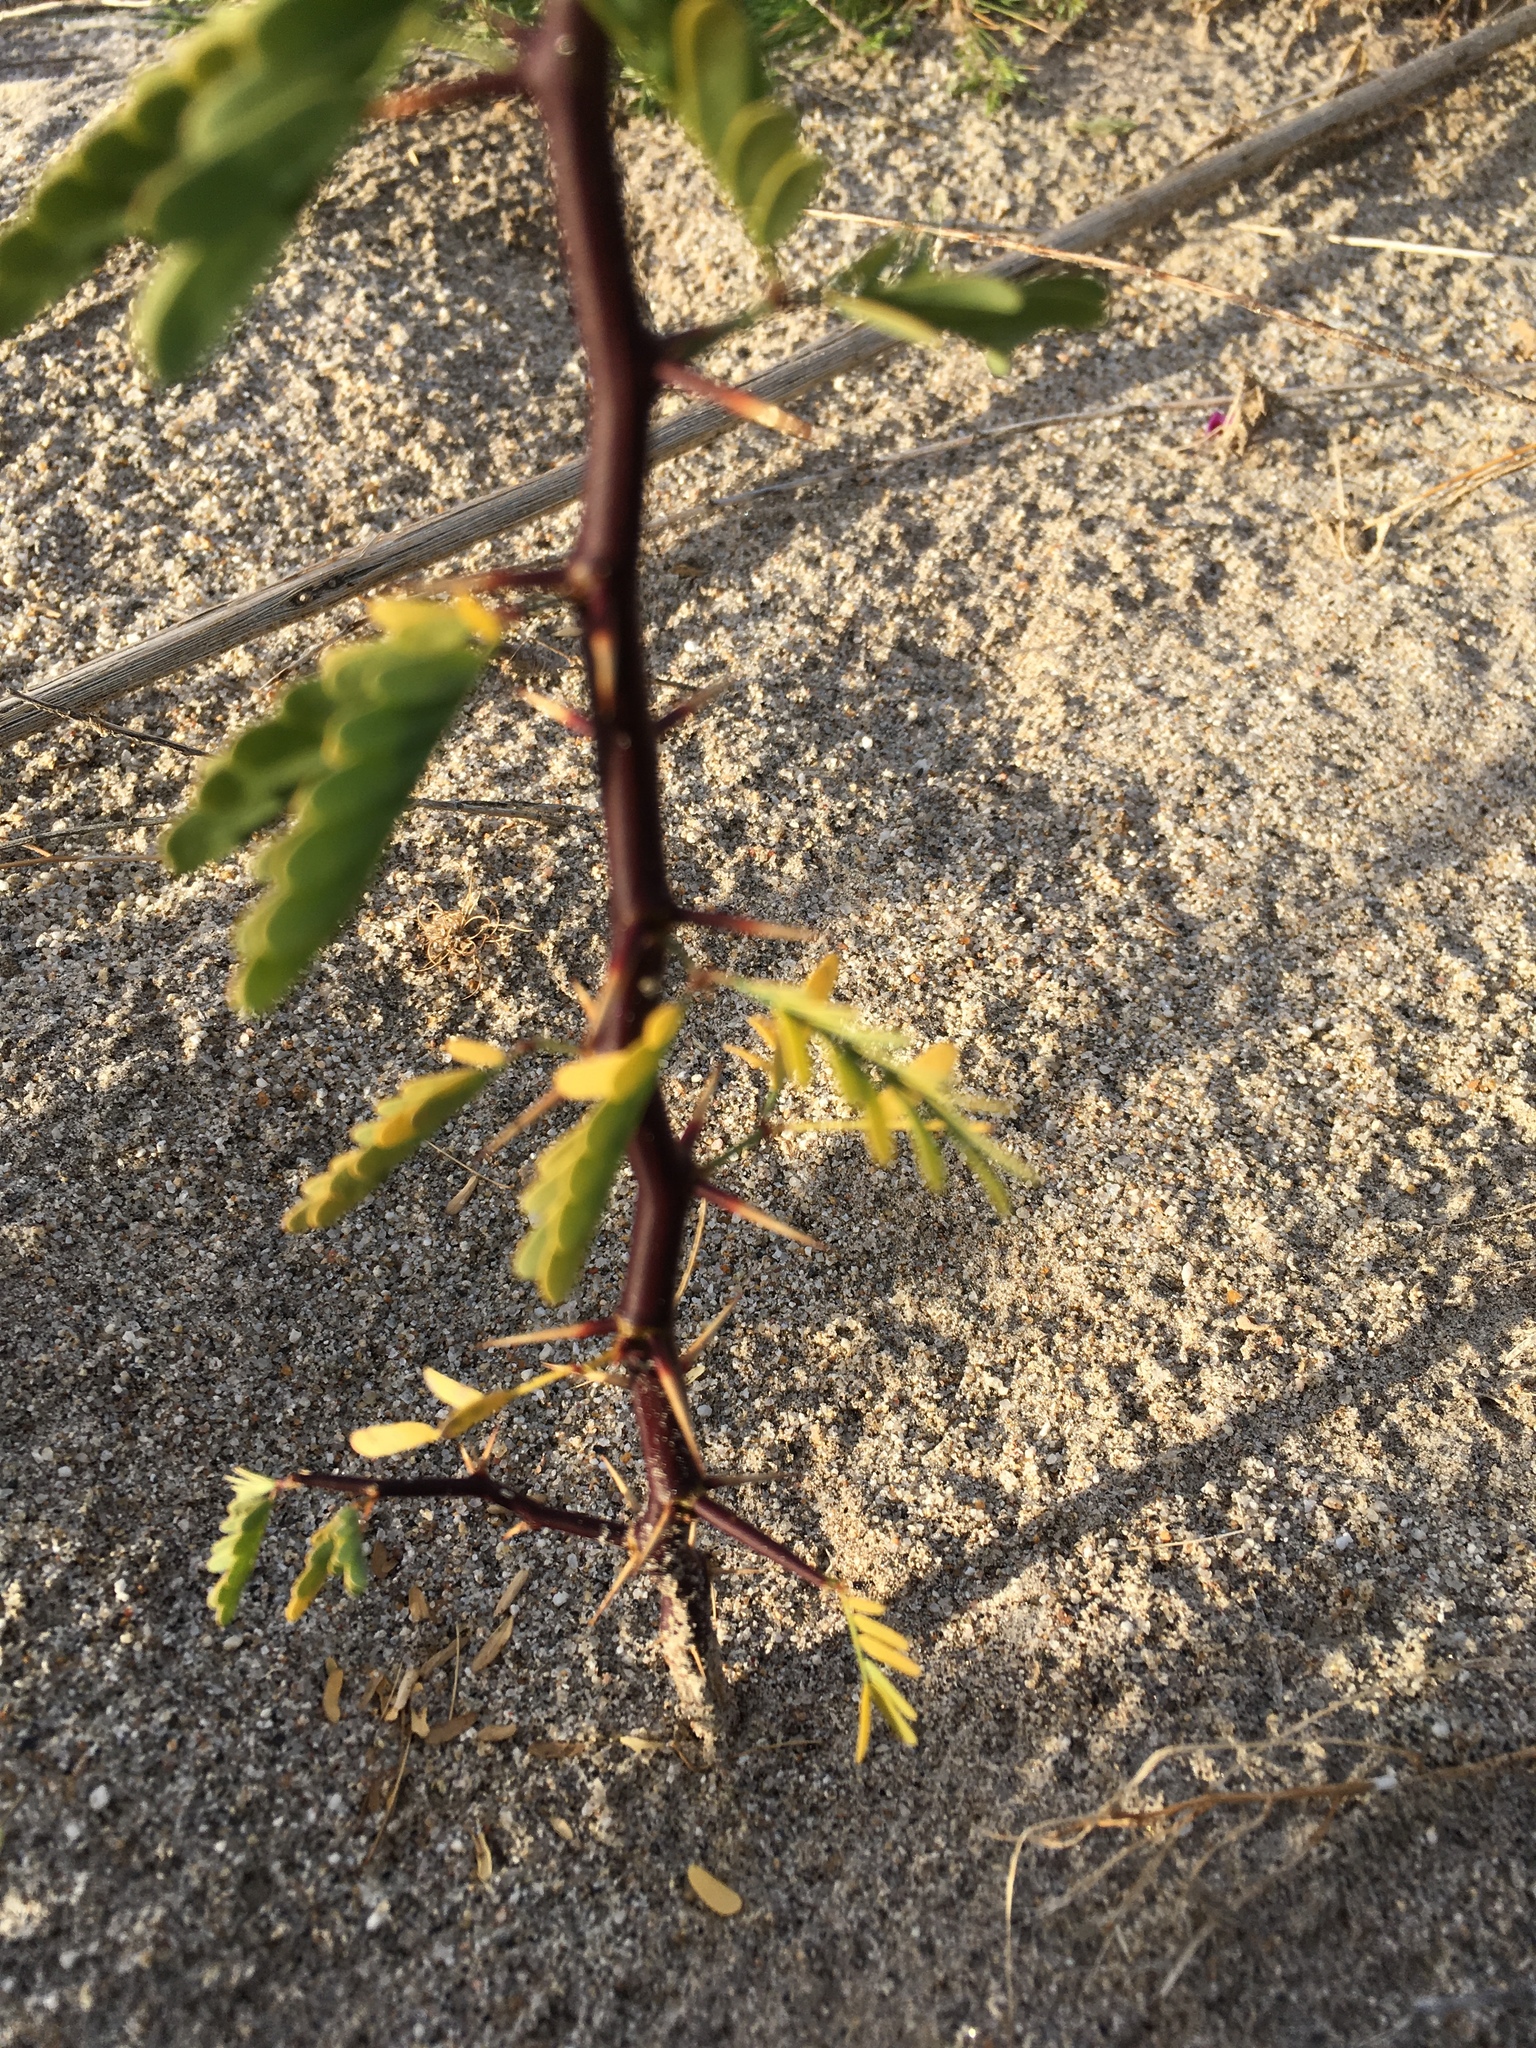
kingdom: Plantae
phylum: Tracheophyta
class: Magnoliopsida
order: Fabales
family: Fabaceae
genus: Prosopis
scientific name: Prosopis pubescens
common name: Screw-bean
